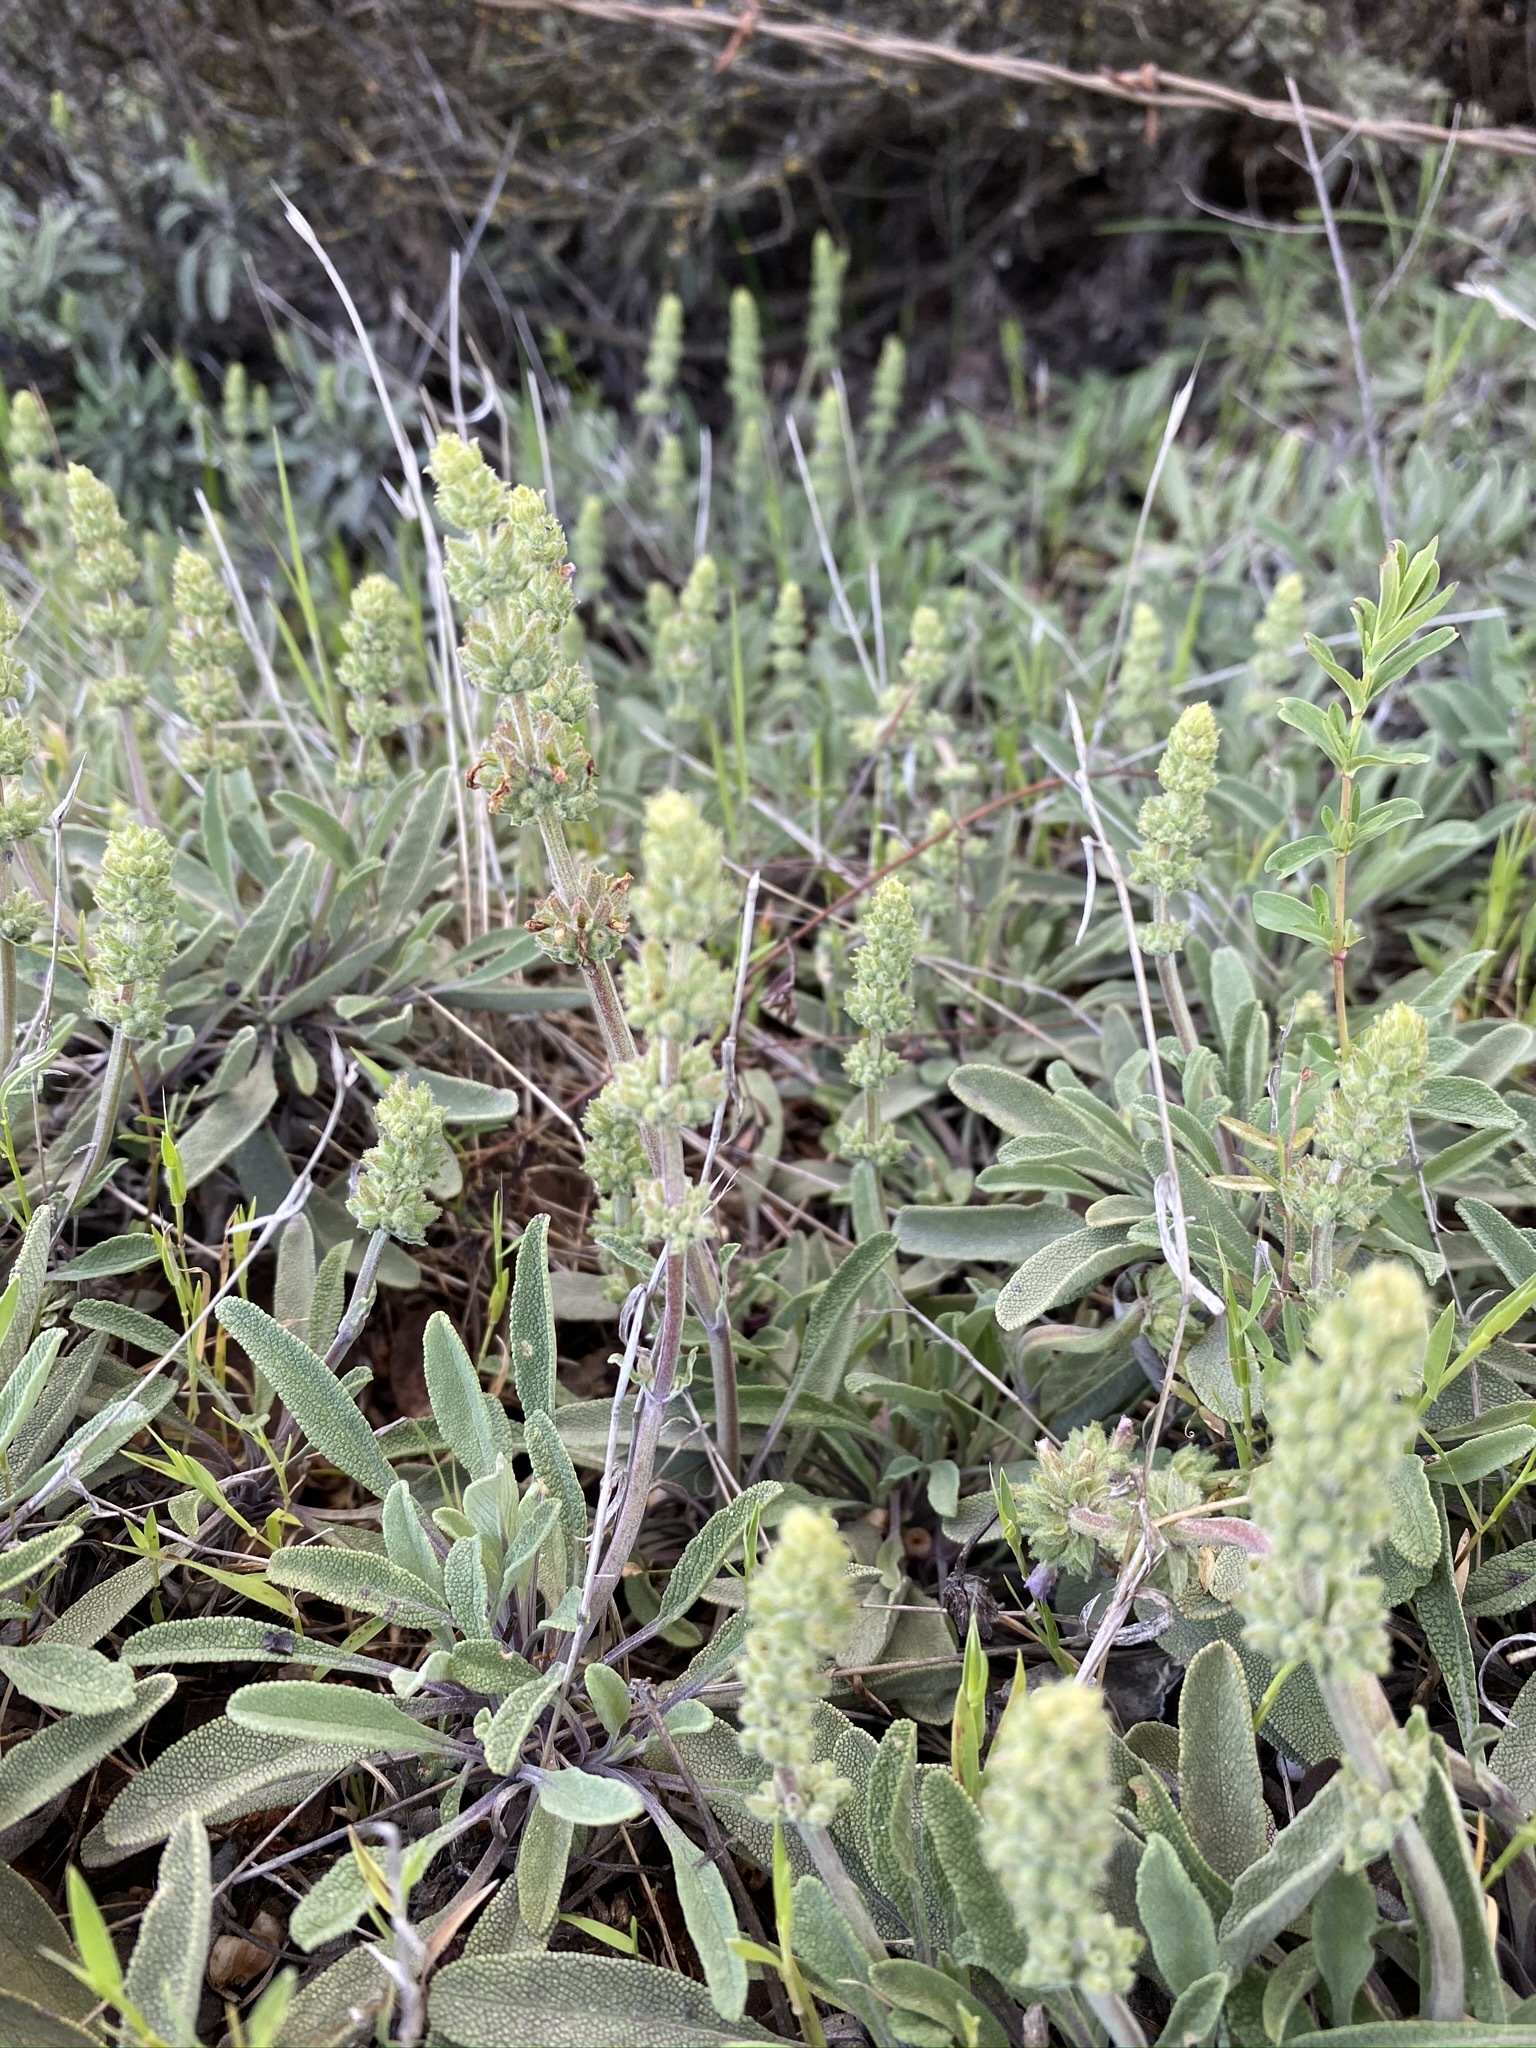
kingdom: Plantae
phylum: Tracheophyta
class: Magnoliopsida
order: Lamiales
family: Lamiaceae
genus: Salvia
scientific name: Salvia sonomensis
